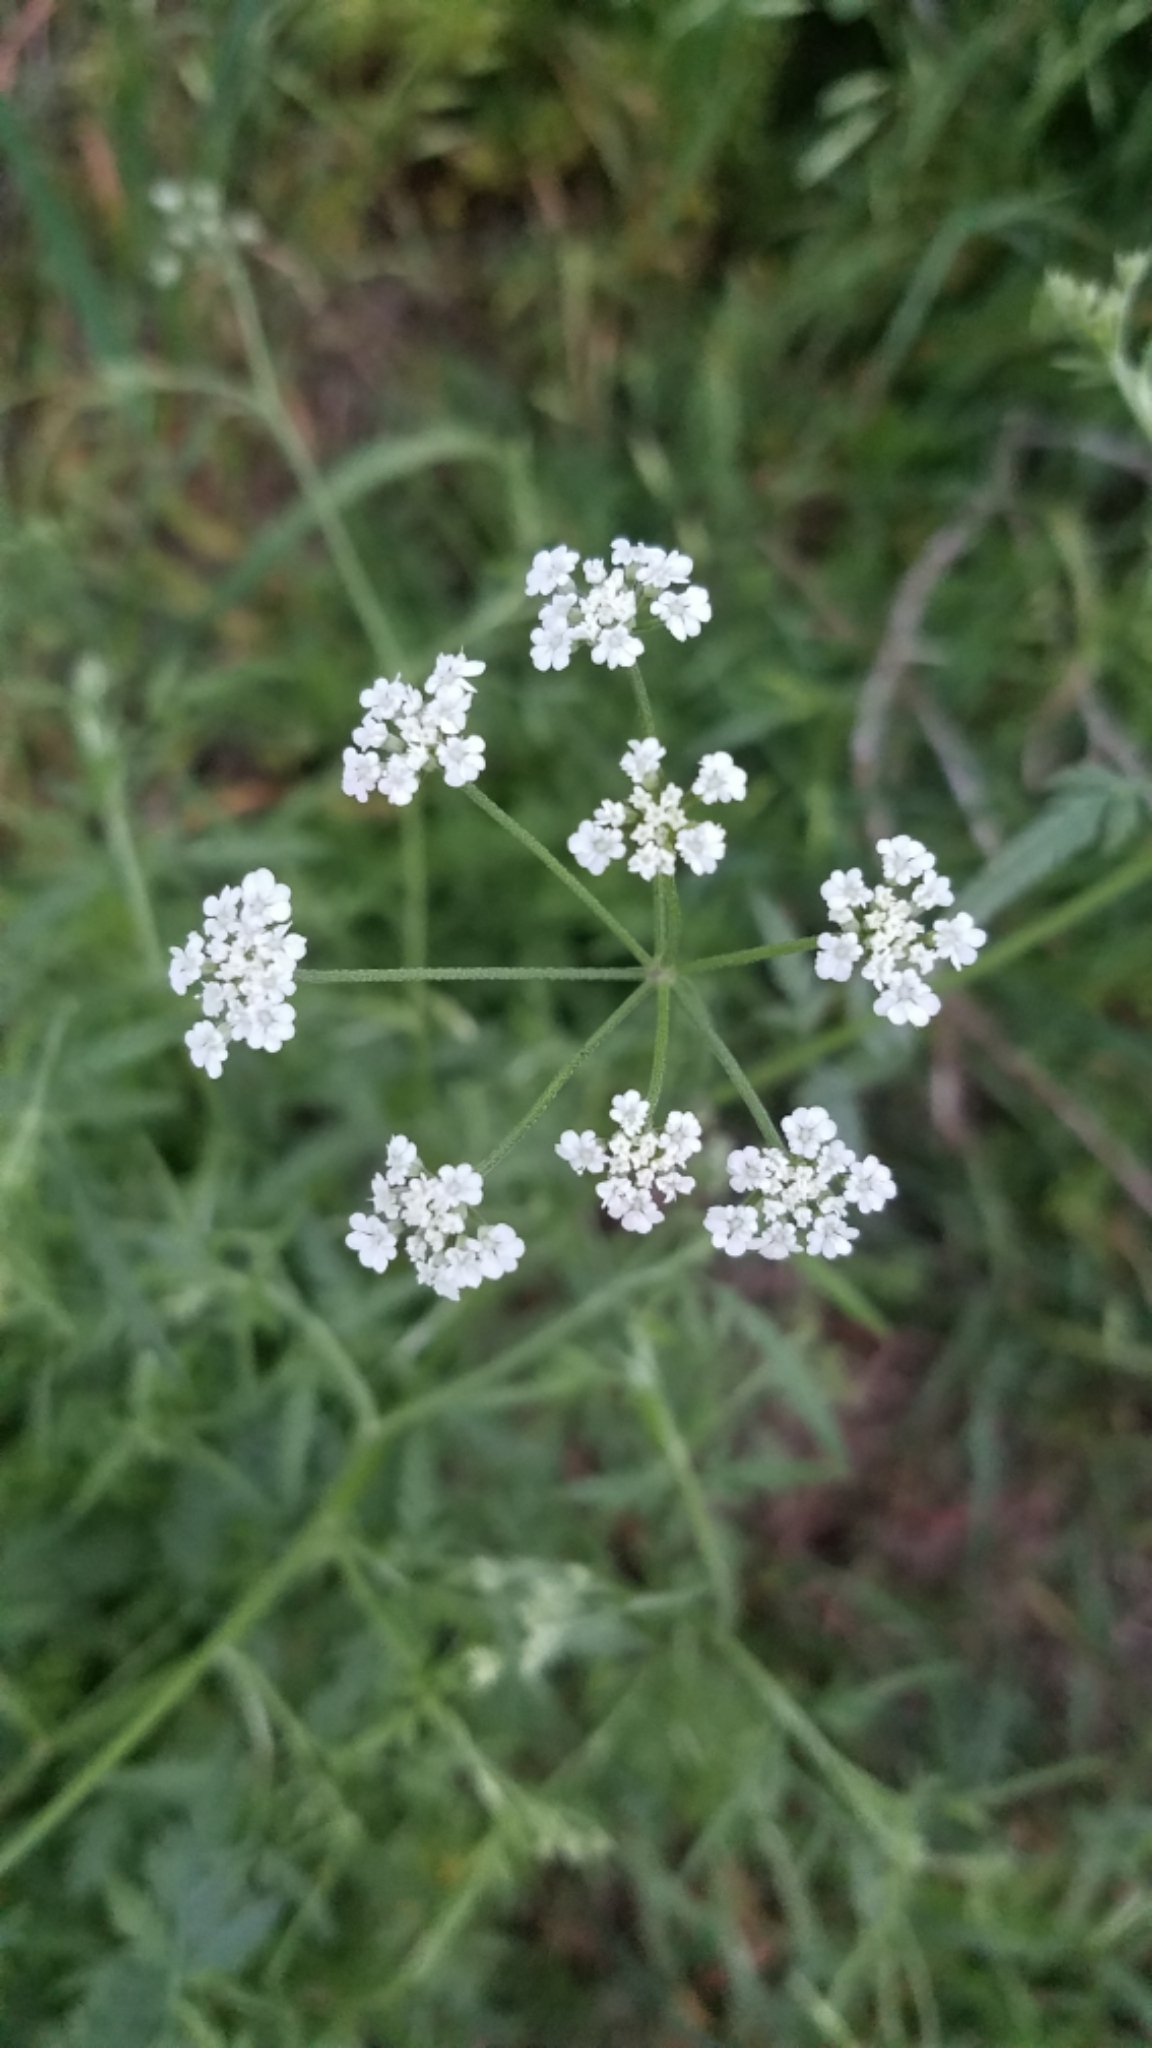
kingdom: Plantae
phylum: Tracheophyta
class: Magnoliopsida
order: Apiales
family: Apiaceae
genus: Torilis
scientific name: Torilis arvensis
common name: Spreading hedge-parsley
